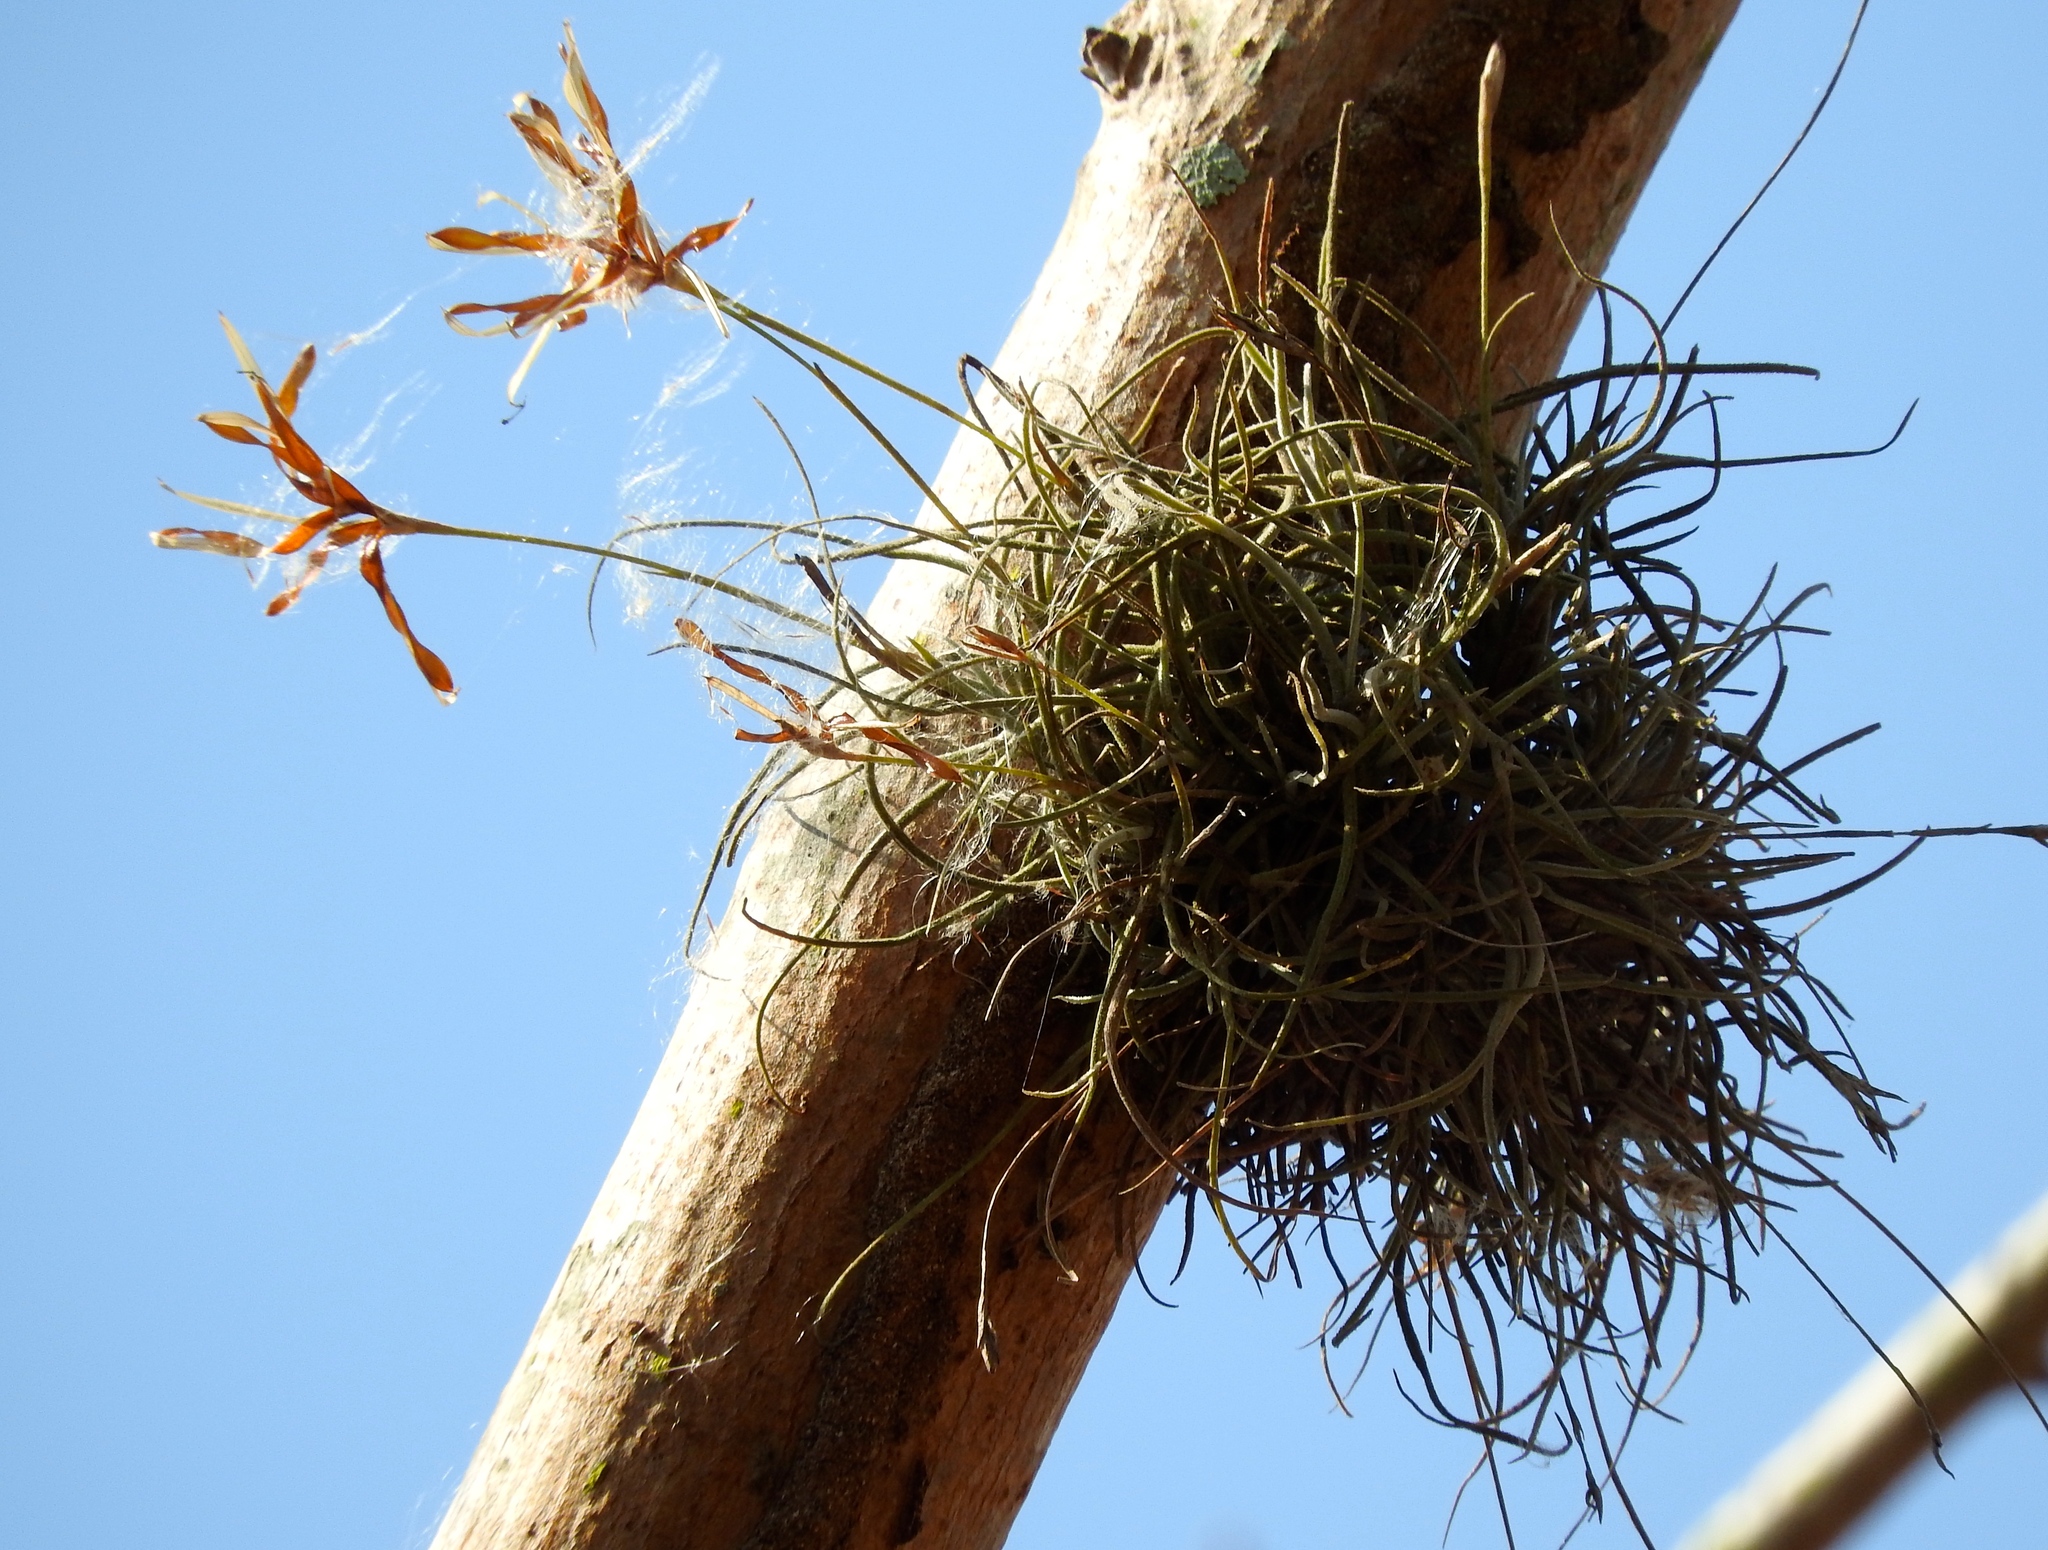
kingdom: Plantae
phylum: Tracheophyta
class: Liliopsida
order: Poales
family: Bromeliaceae
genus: Tillandsia
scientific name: Tillandsia recurvata
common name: Small ballmoss
